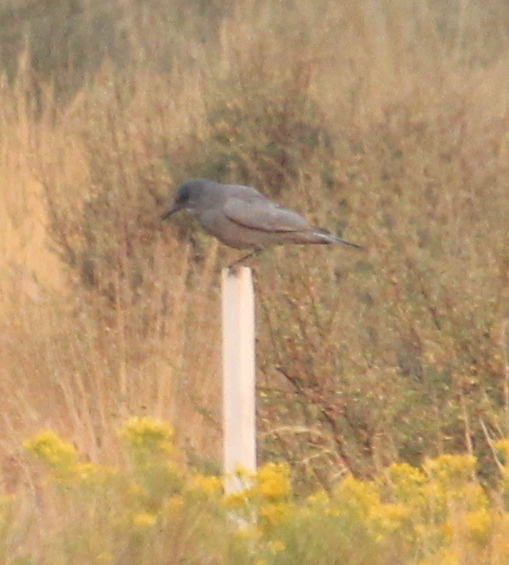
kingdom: Animalia
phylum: Chordata
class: Aves
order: Passeriformes
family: Corvidae
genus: Gymnorhinus
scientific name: Gymnorhinus cyanocephalus
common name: Pinyon jay
